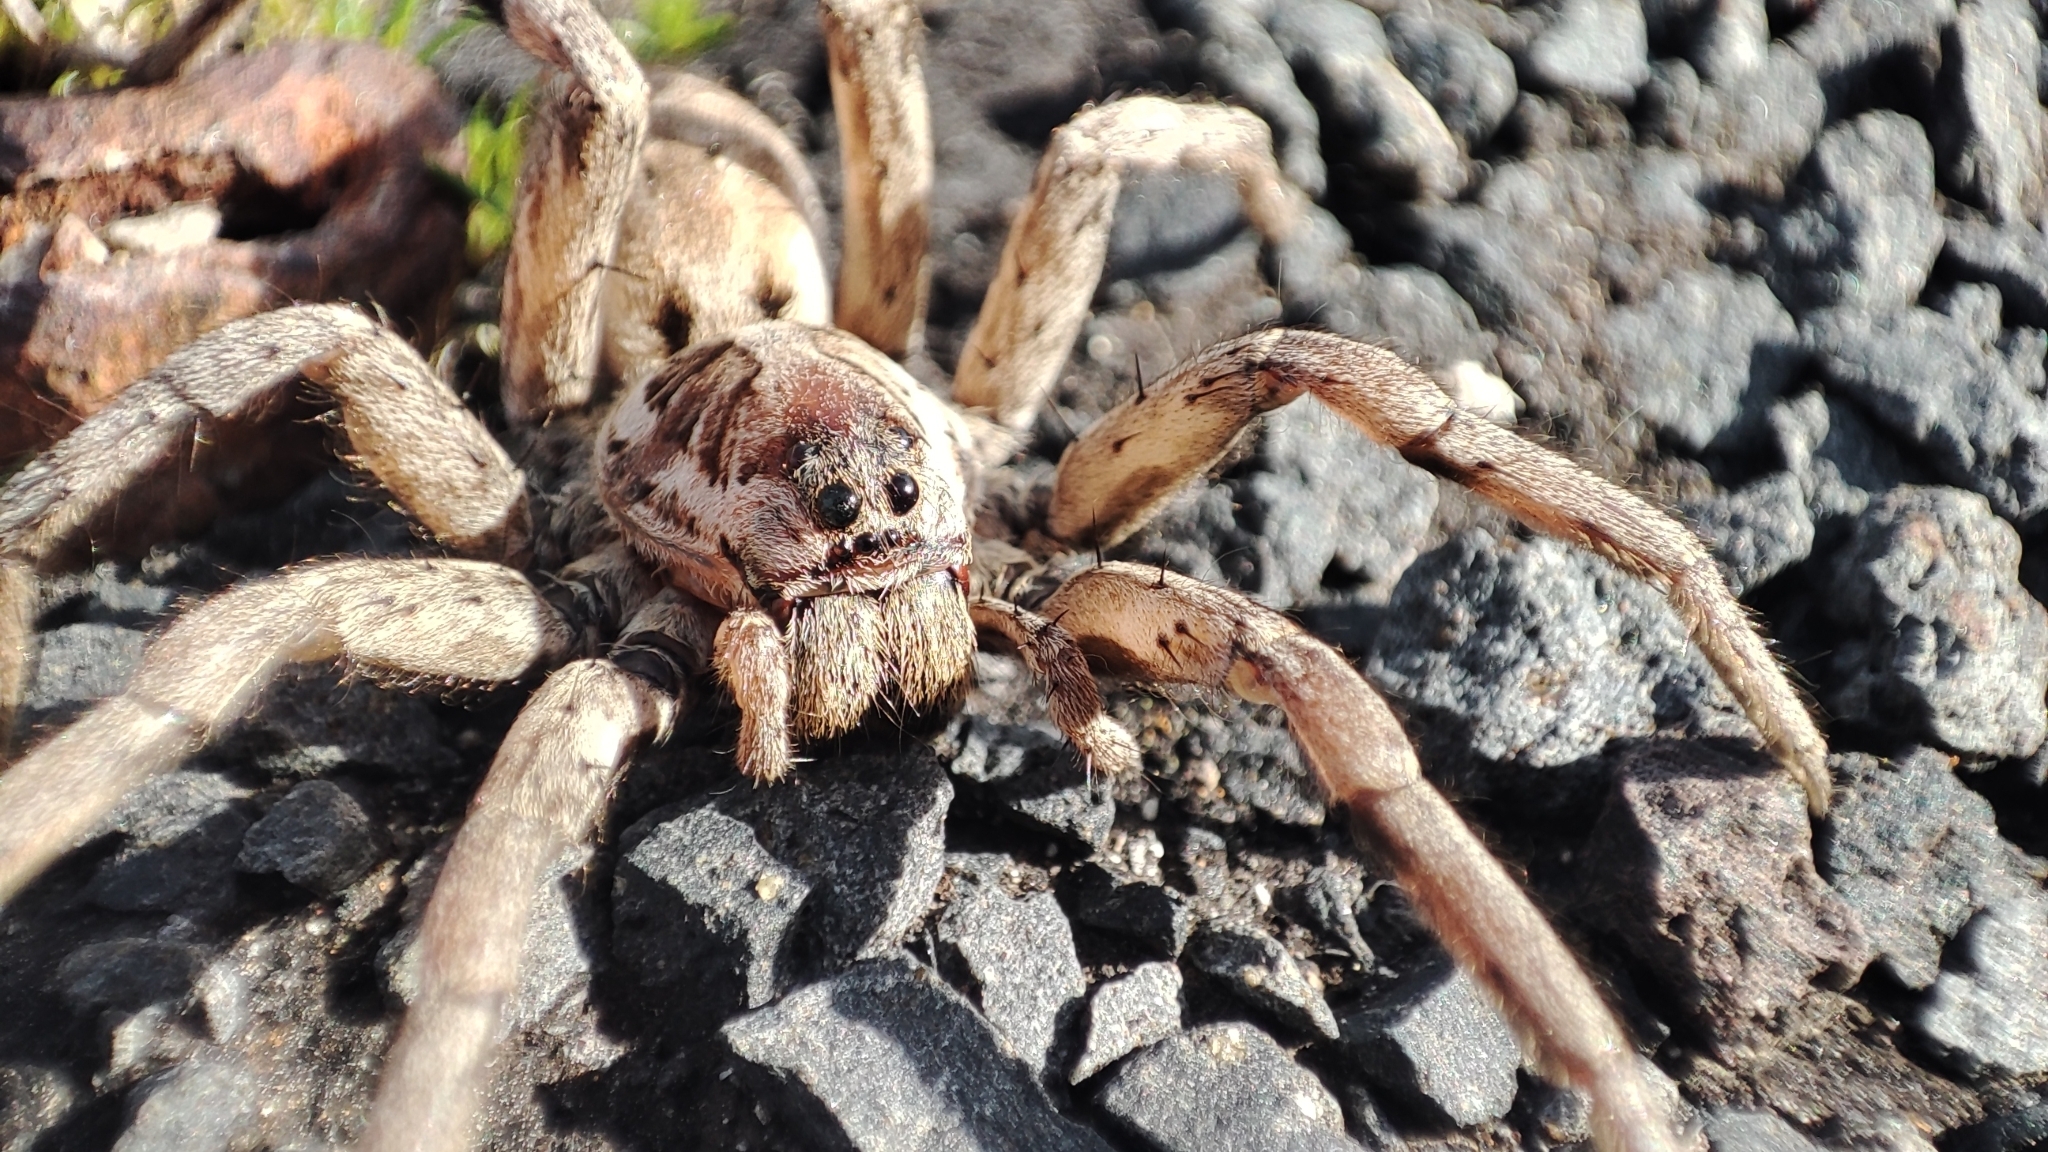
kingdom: Animalia
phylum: Arthropoda
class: Arachnida
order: Araneae
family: Lycosidae
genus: Lycosa
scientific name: Lycosa tarantula
